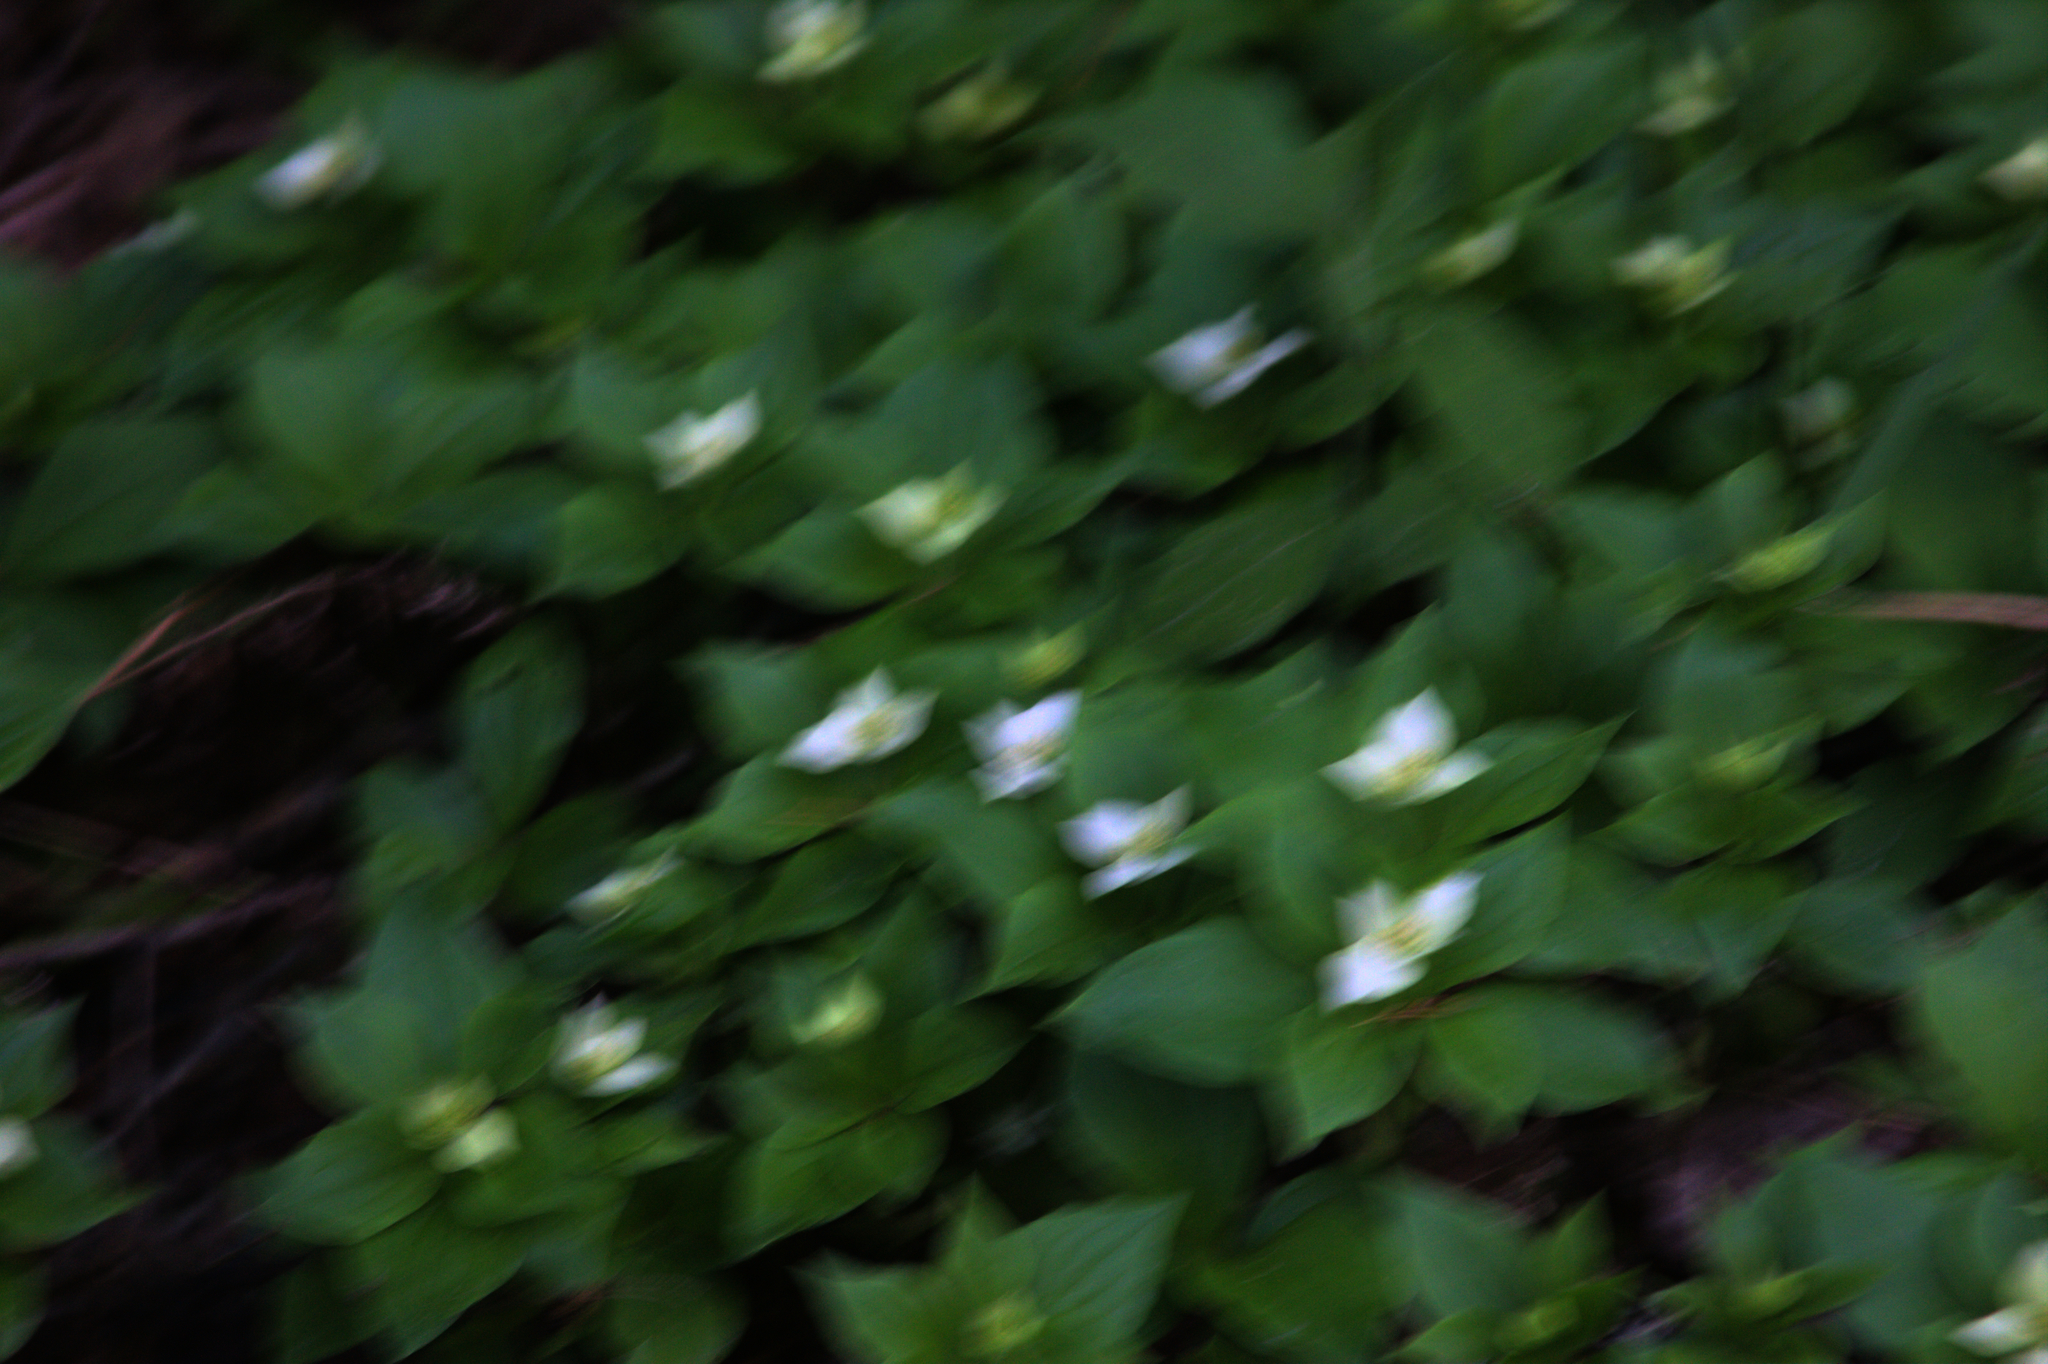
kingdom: Plantae
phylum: Tracheophyta
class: Magnoliopsida
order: Cornales
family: Cornaceae
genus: Cornus
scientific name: Cornus canadensis
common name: Creeping dogwood
